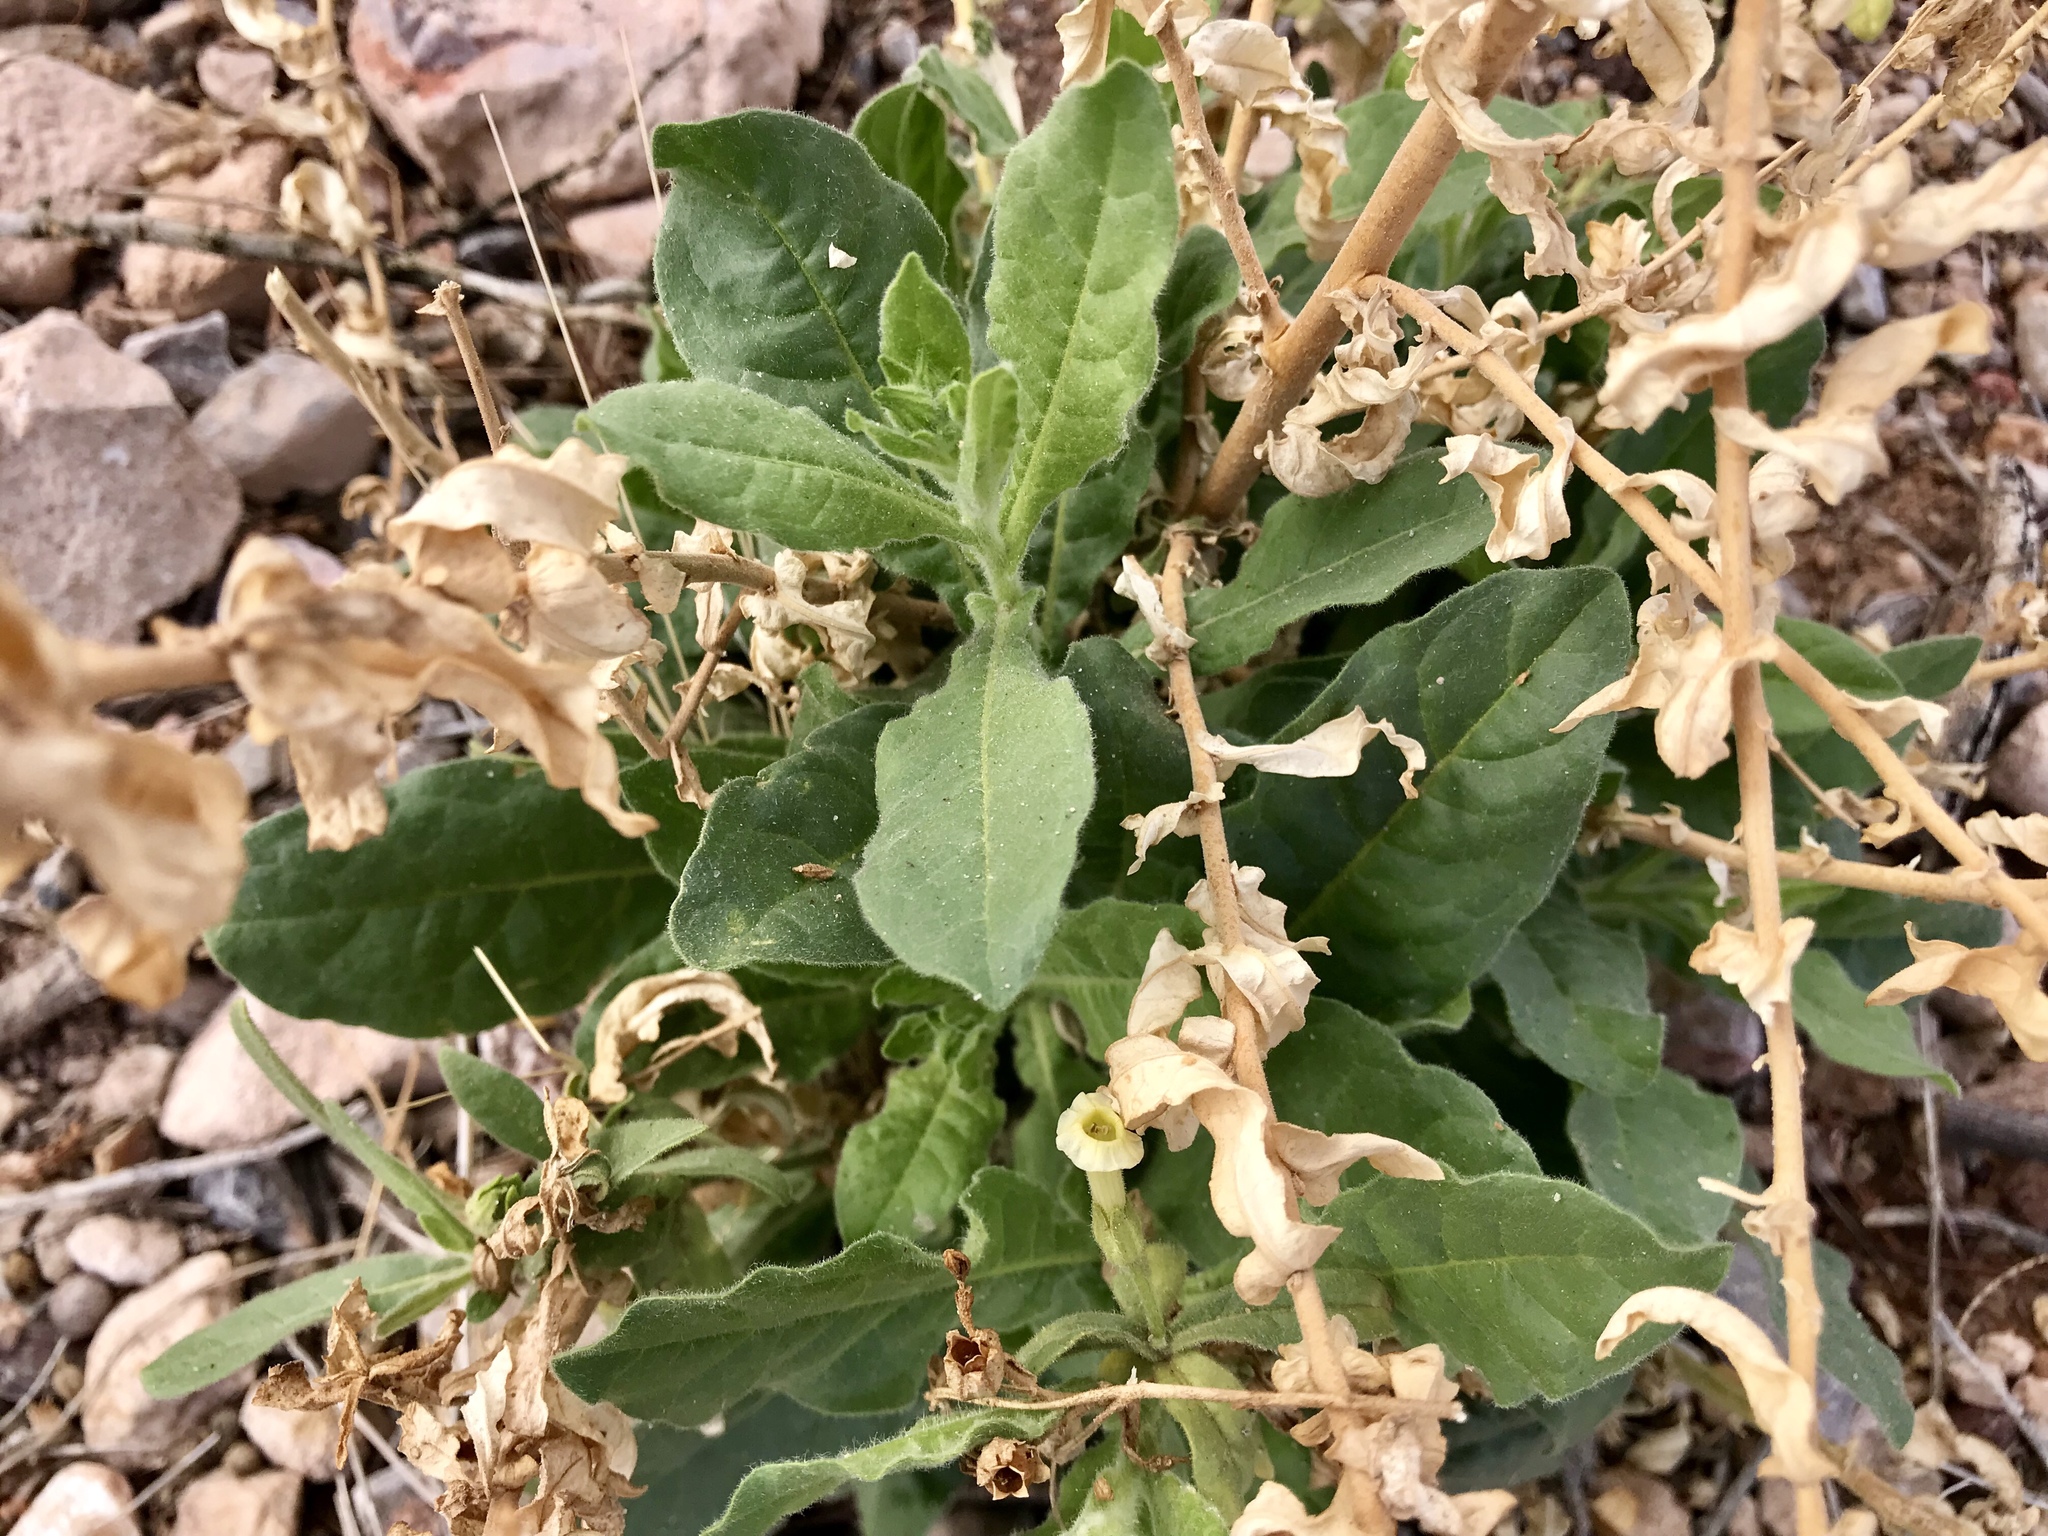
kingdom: Plantae
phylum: Tracheophyta
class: Magnoliopsida
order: Solanales
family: Solanaceae
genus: Nicotiana
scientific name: Nicotiana obtusifolia
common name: Desert tobacco
